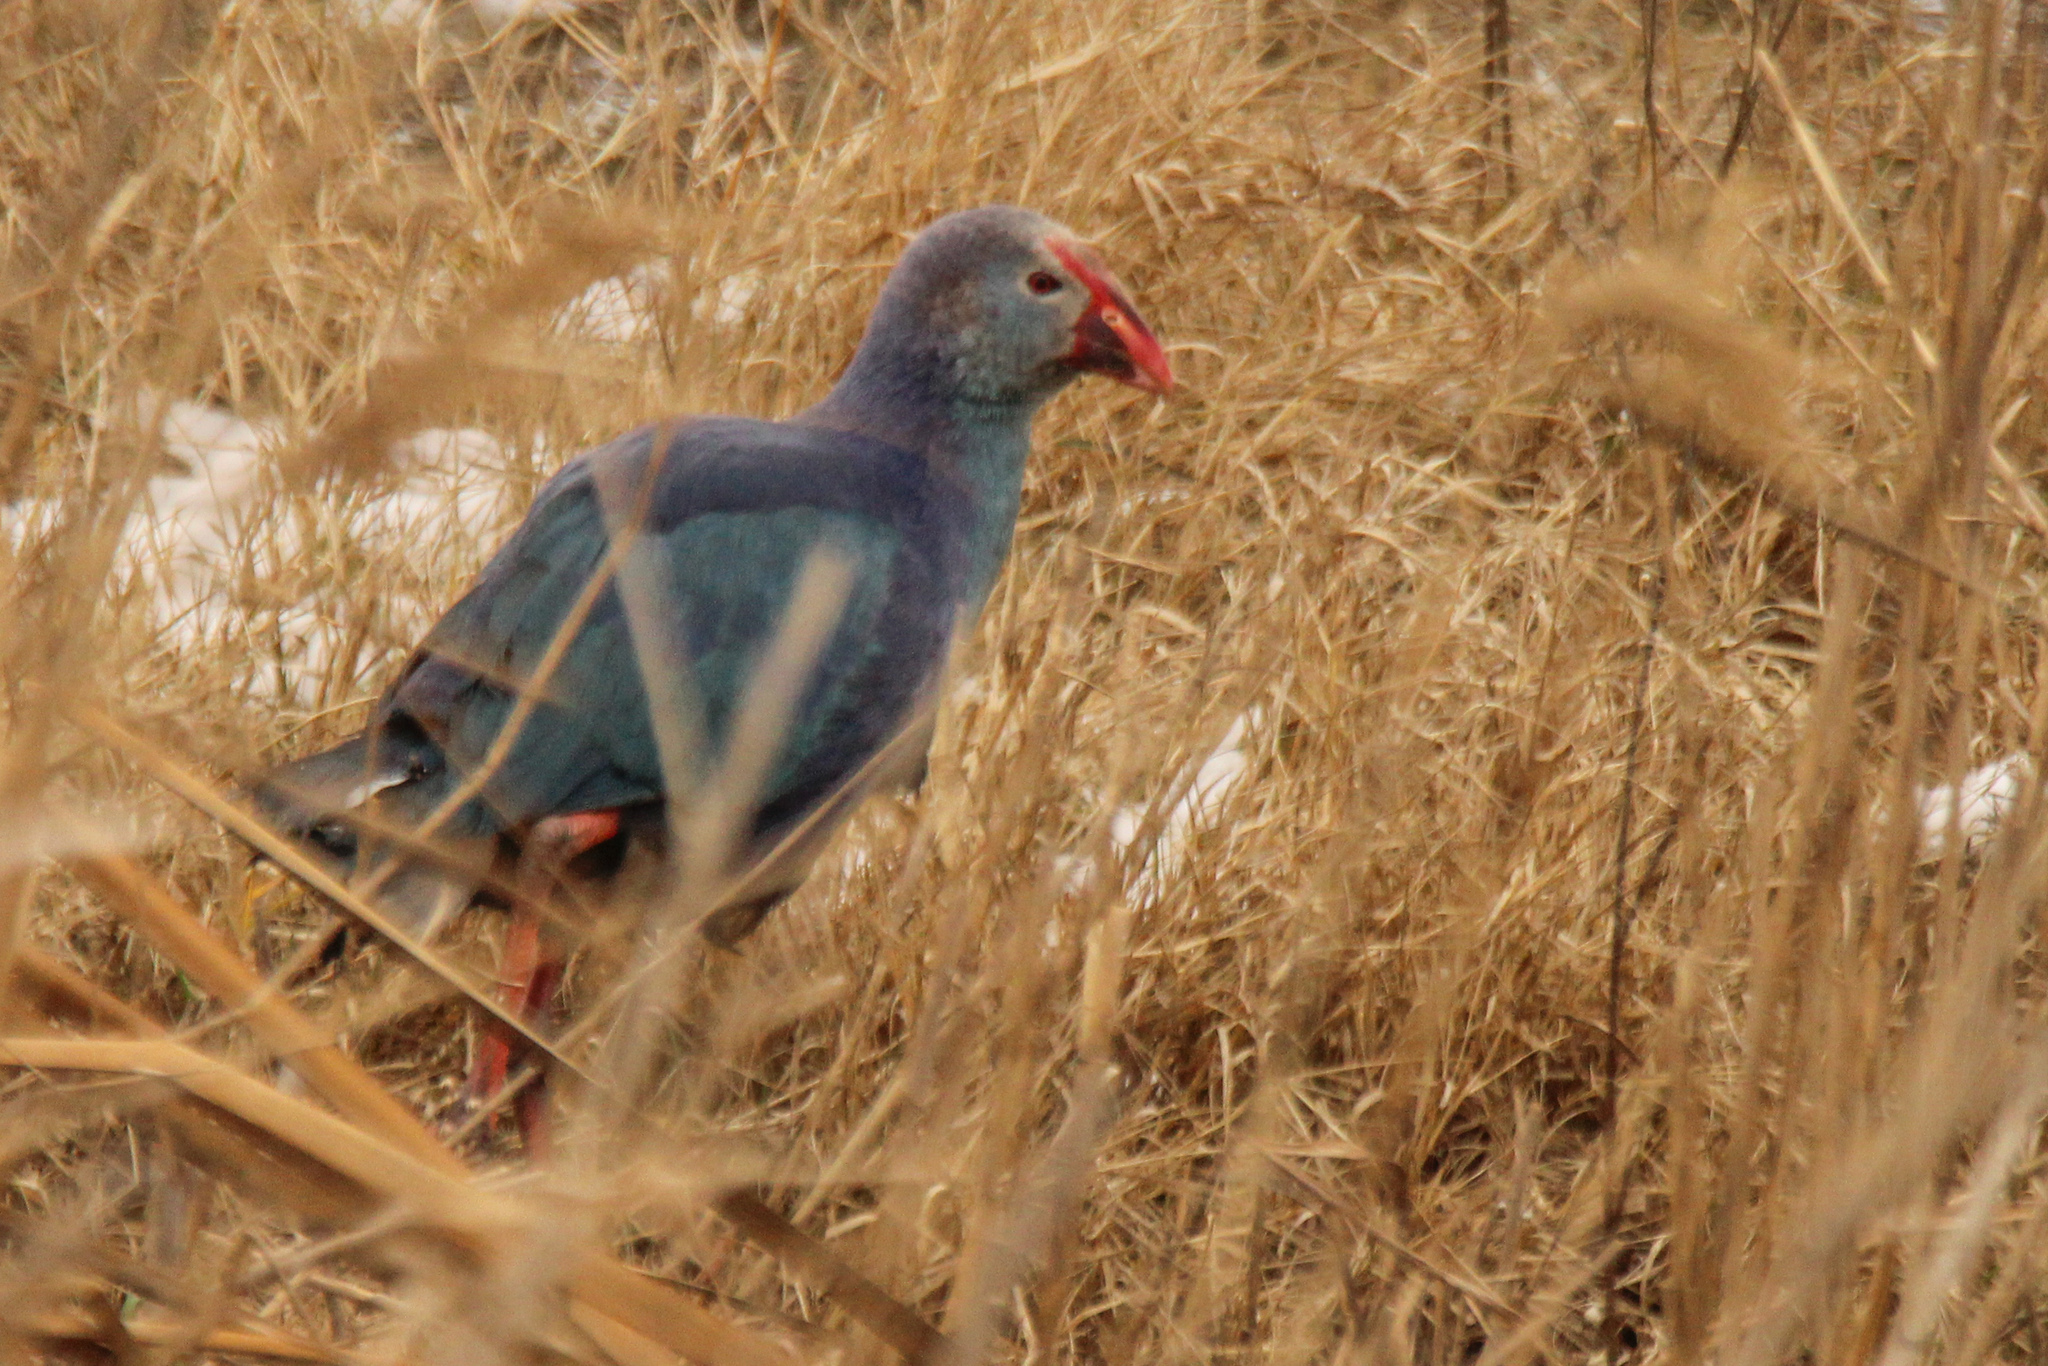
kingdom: Animalia
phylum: Chordata
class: Aves
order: Gruiformes
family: Rallidae
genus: Porphyrio
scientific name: Porphyrio porphyrio
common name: Purple swamphen
